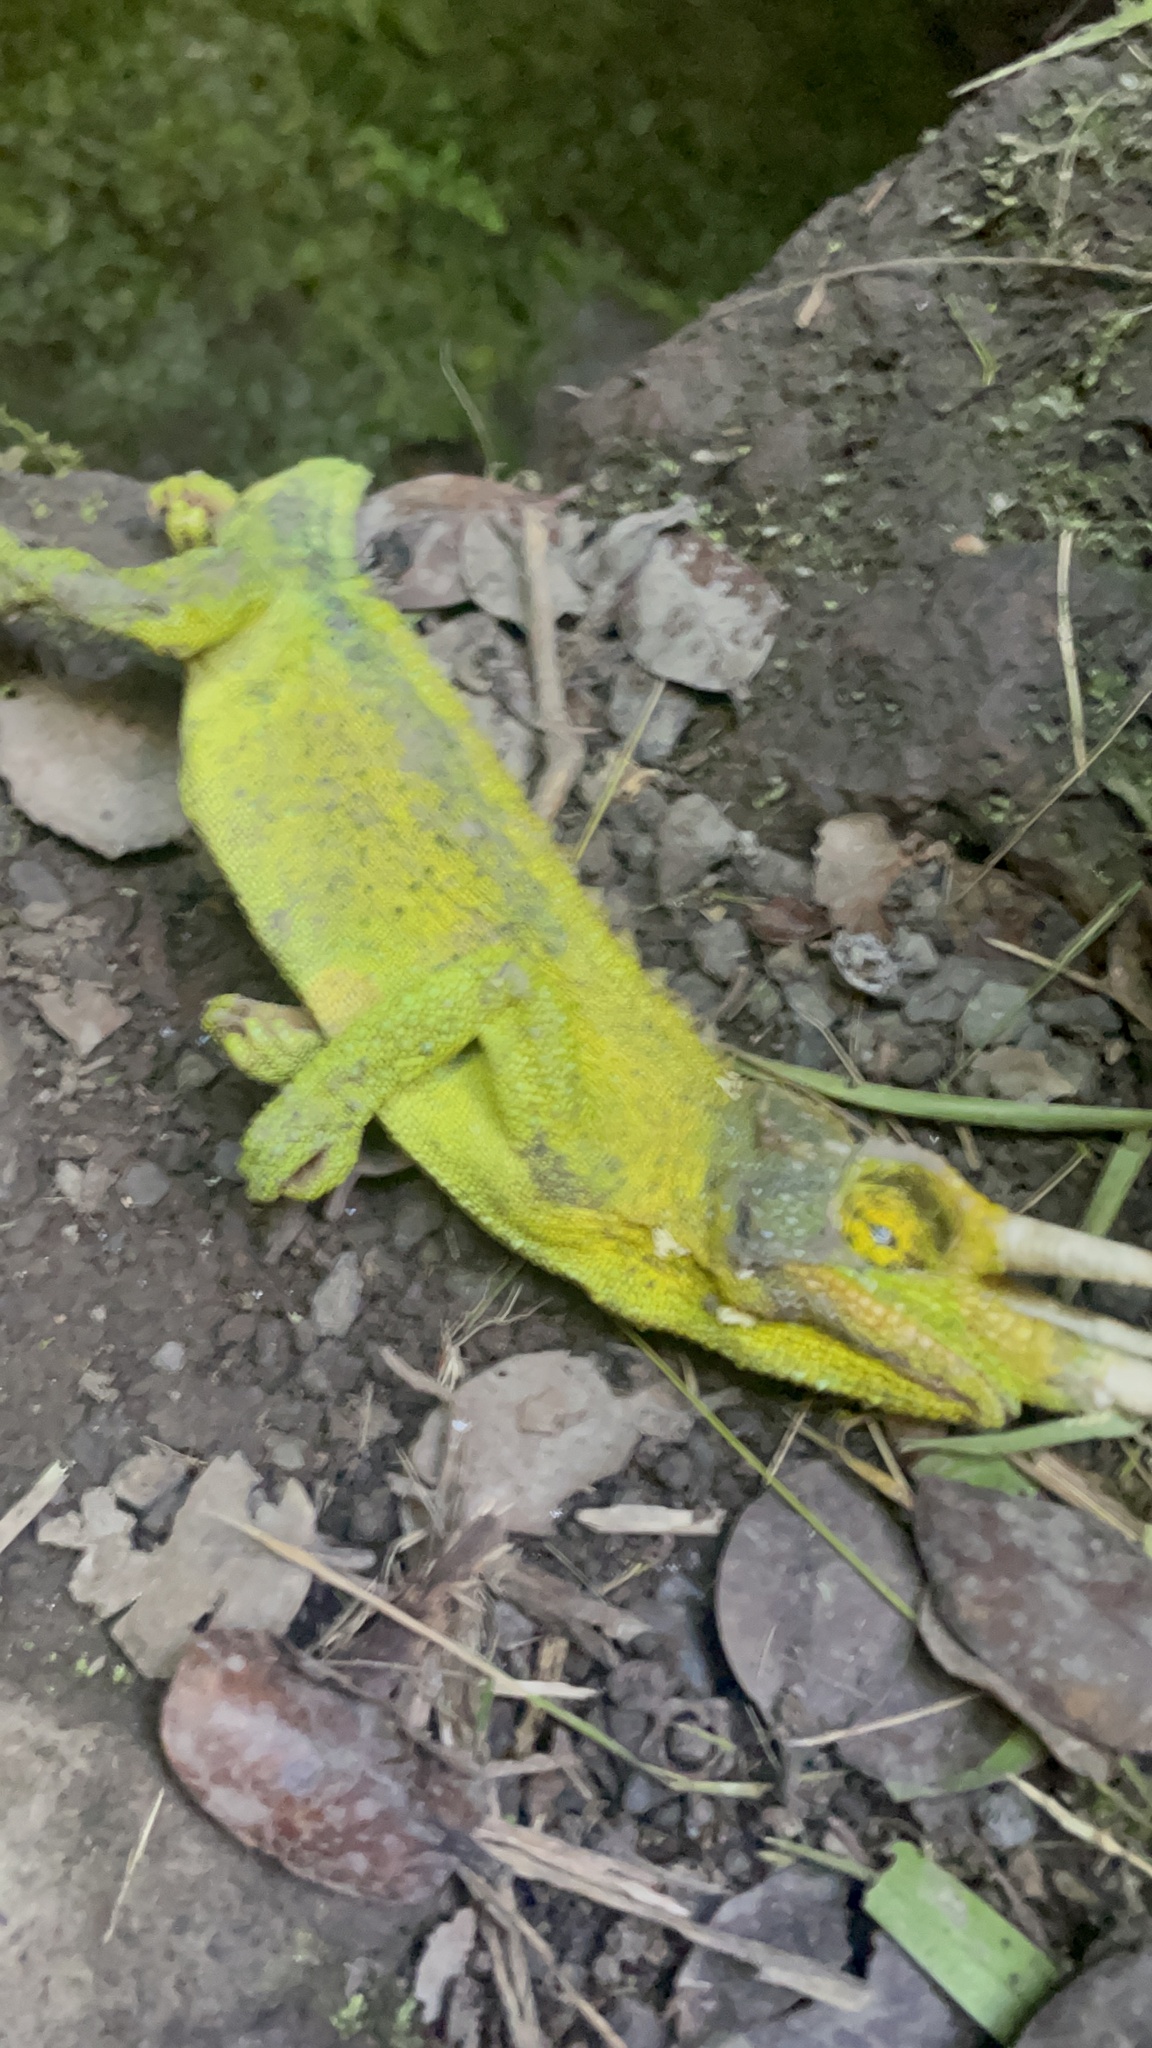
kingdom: Animalia
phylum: Chordata
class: Squamata
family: Chamaeleonidae
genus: Trioceros
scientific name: Trioceros jacksonii
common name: Jackson's chameleon
